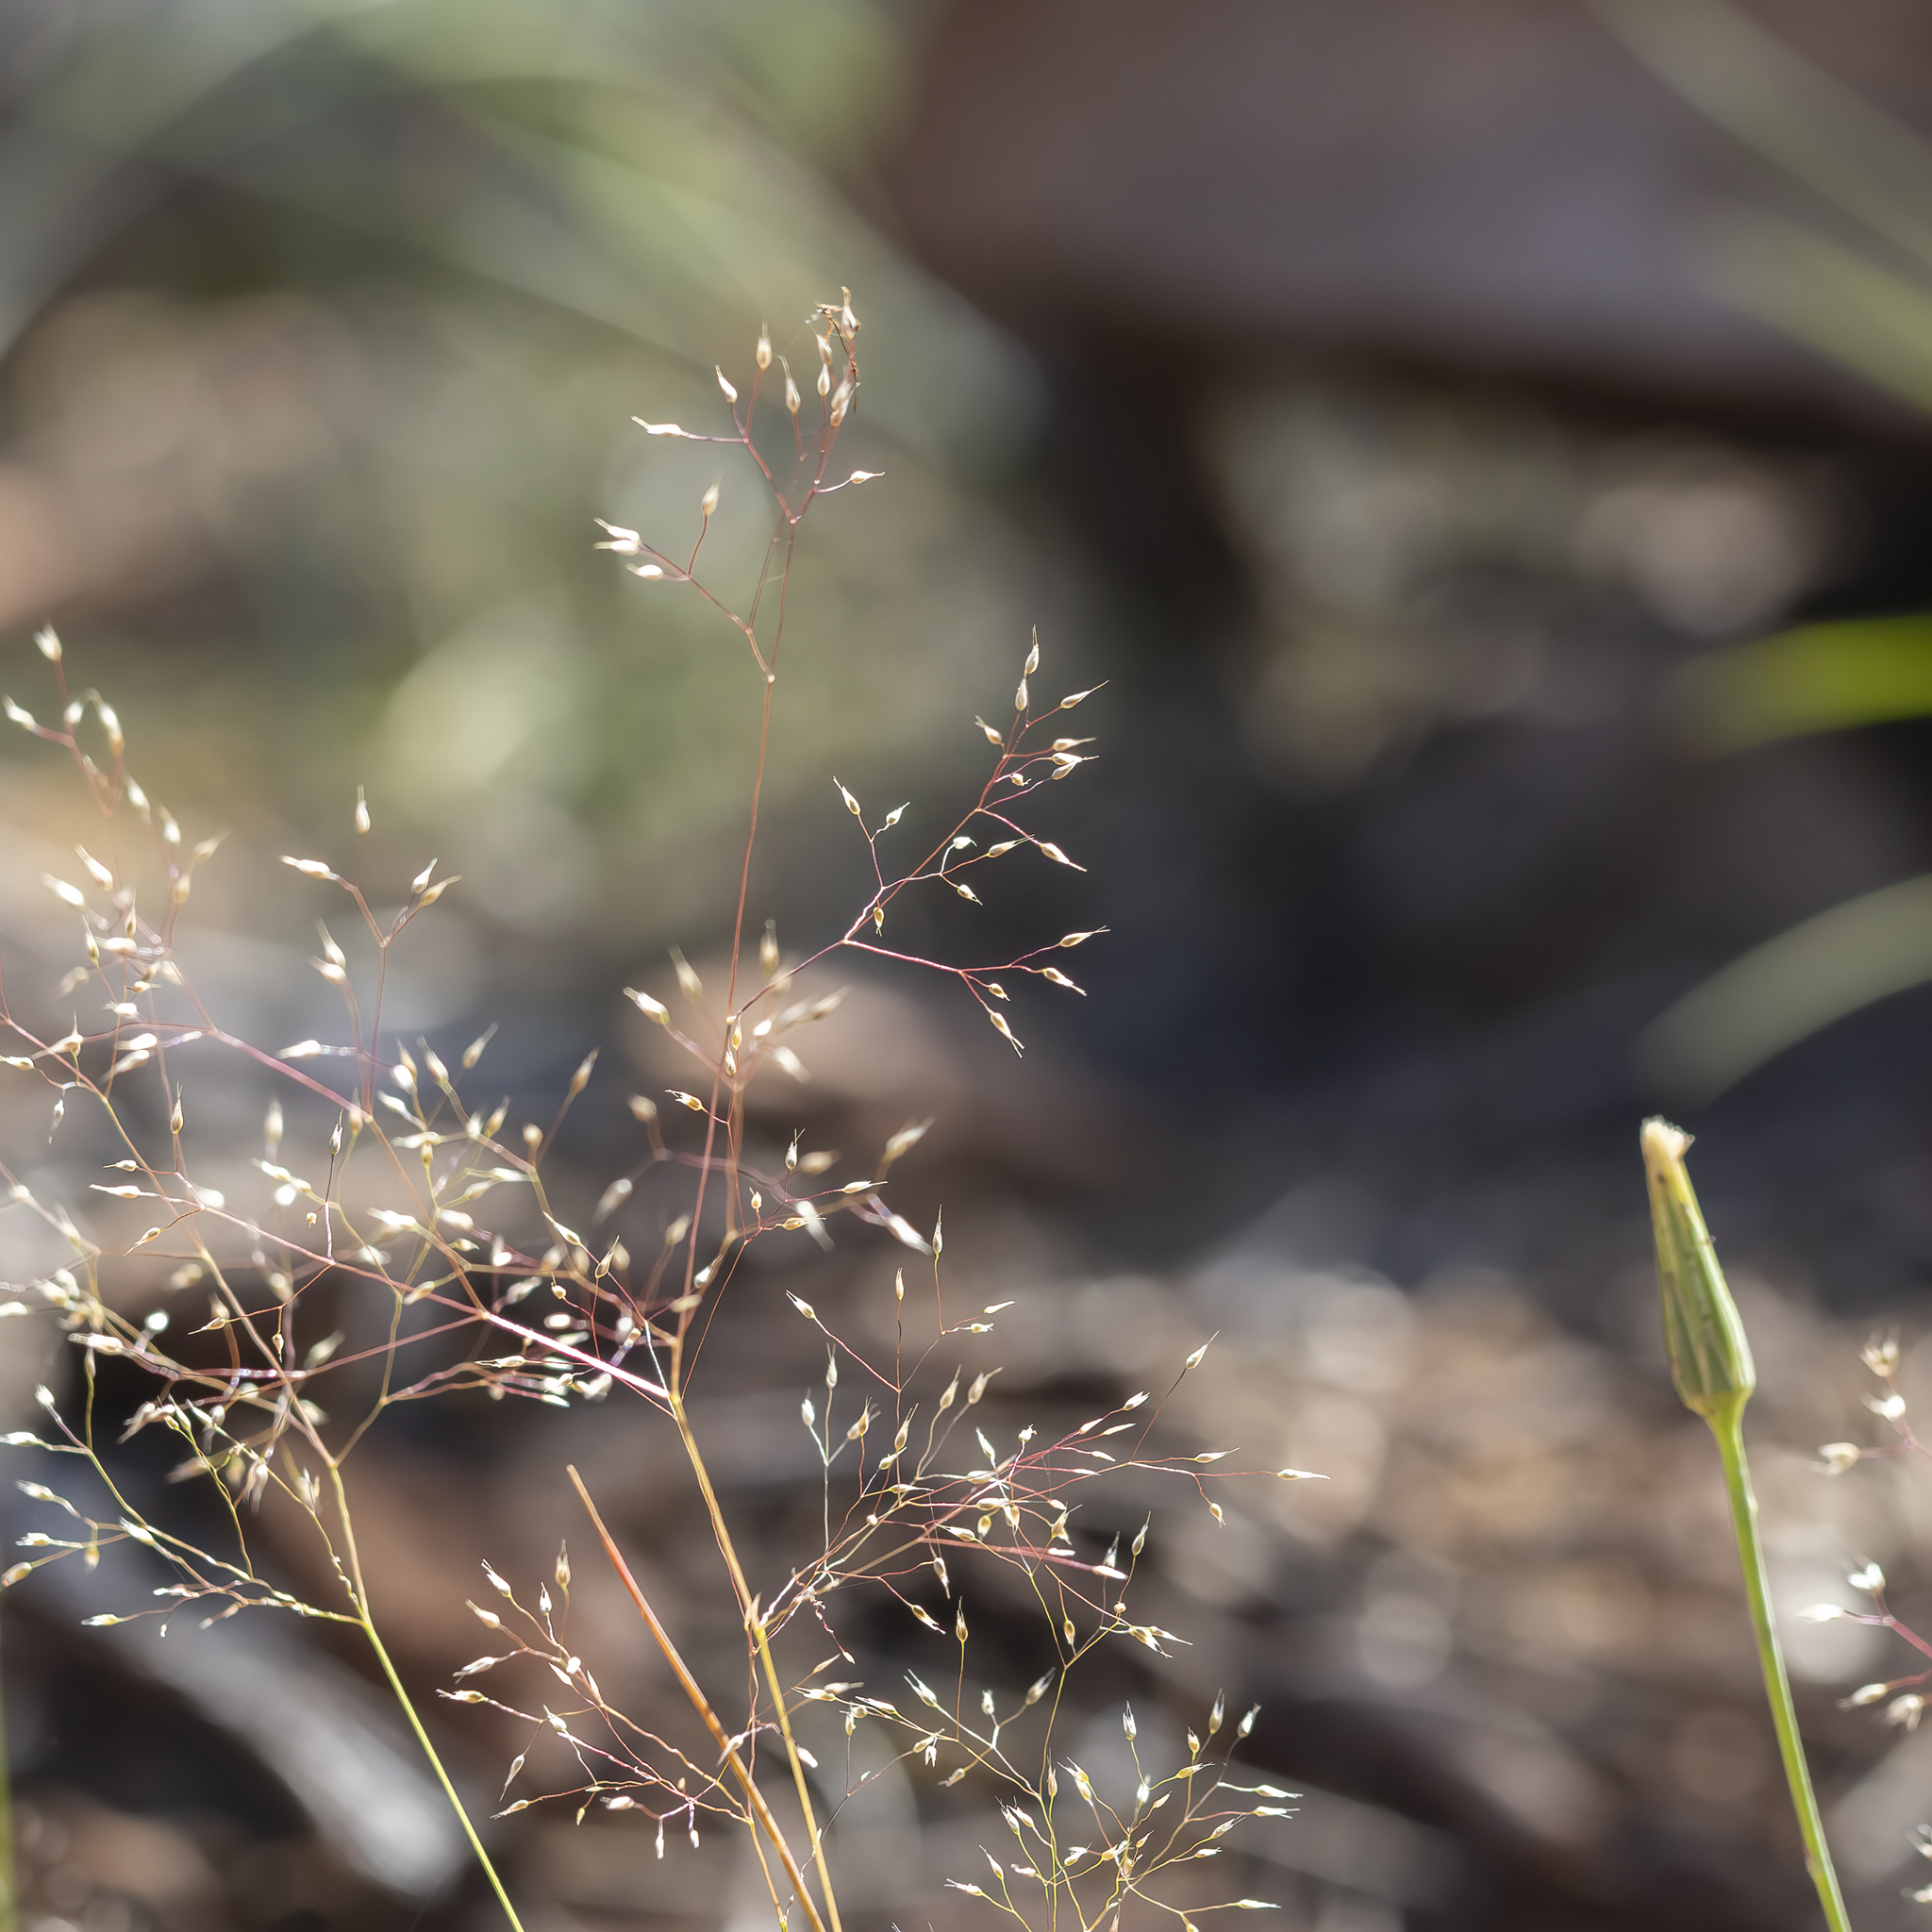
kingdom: Plantae
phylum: Tracheophyta
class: Liliopsida
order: Poales
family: Poaceae
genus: Aira
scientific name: Aira caryophyllea
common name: Silver hairgrass
